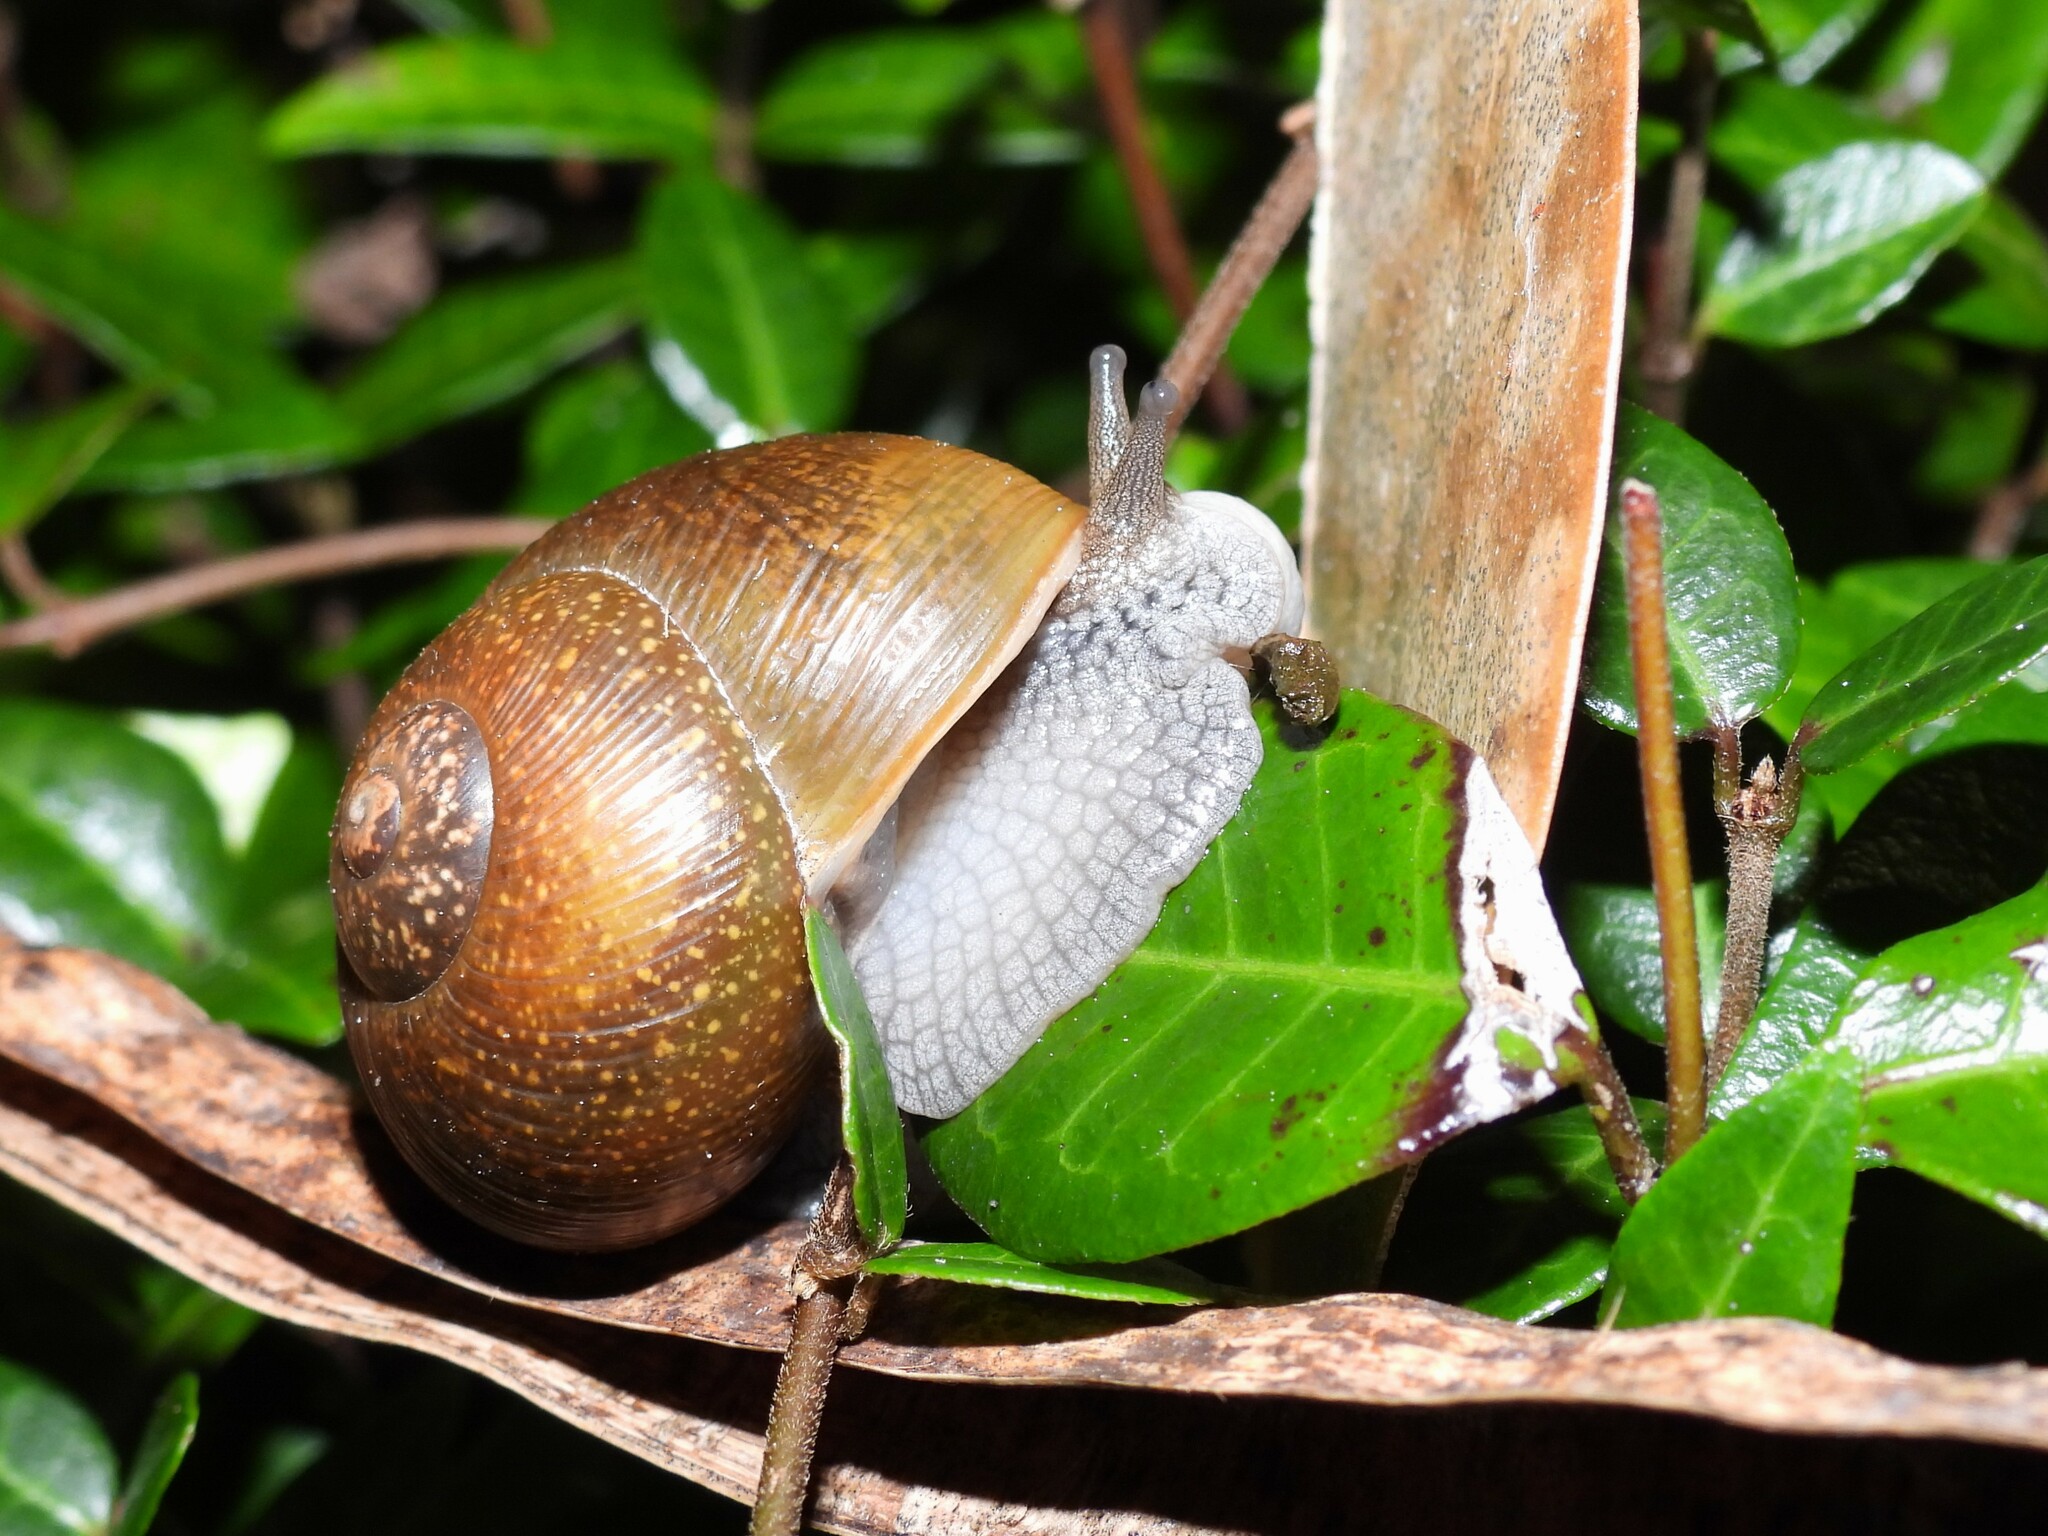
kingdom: Animalia
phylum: Mollusca
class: Gastropoda
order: Stylommatophora
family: Zachrysiidae
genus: Zachrysia
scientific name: Zachrysia provisoria
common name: Garden zachrysia
